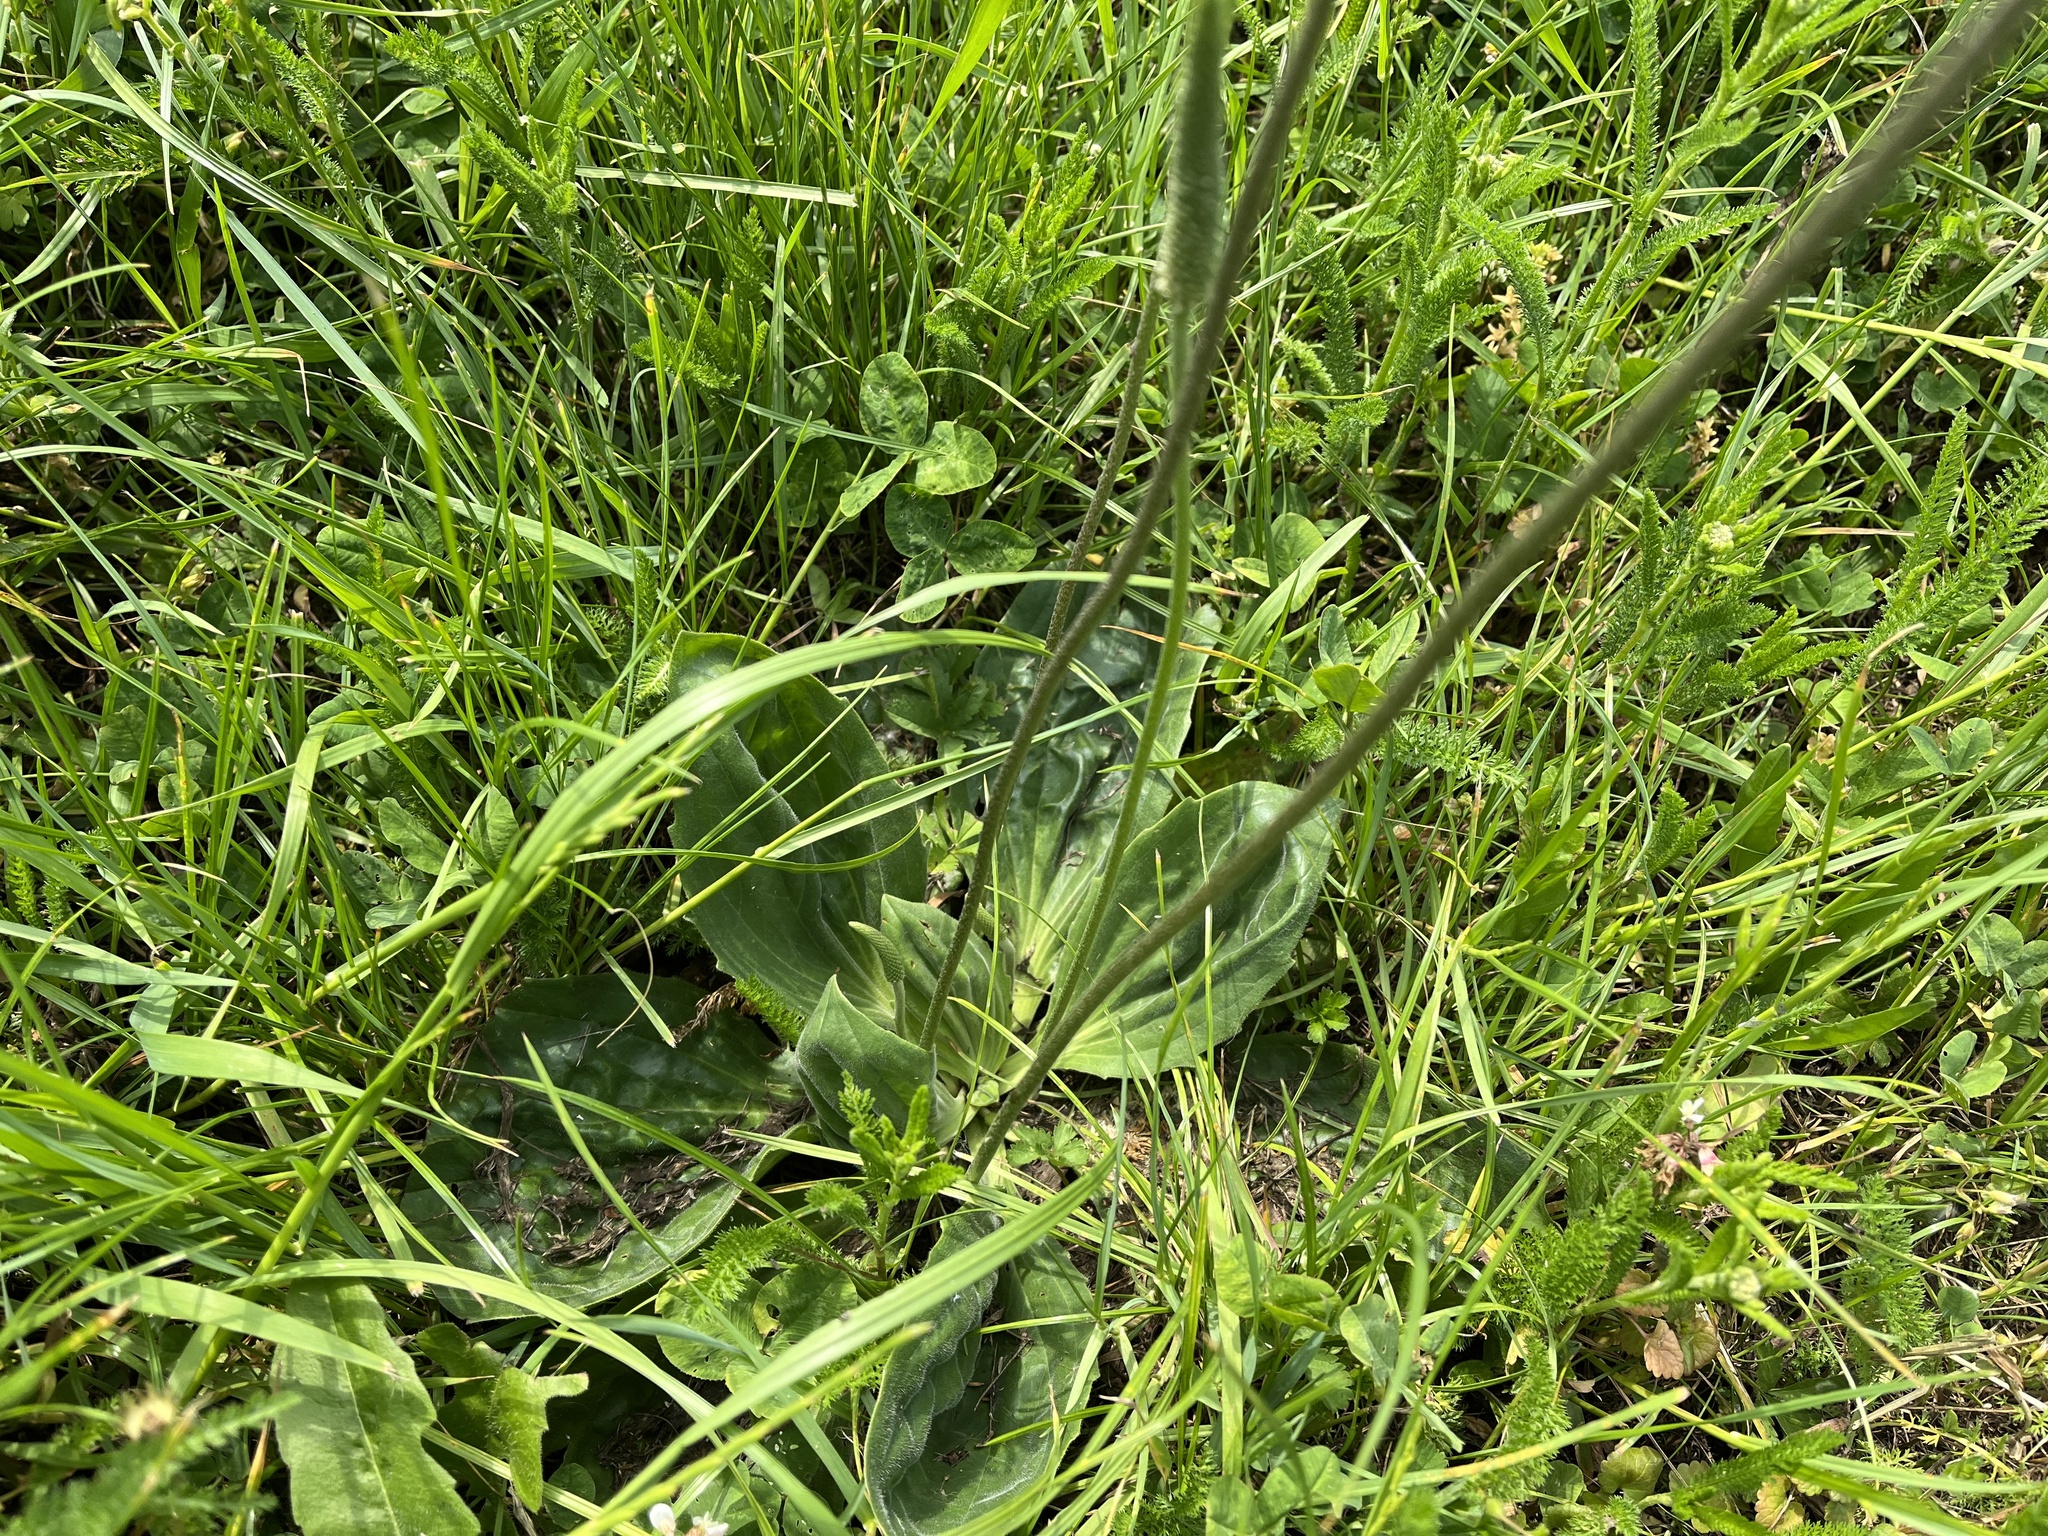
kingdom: Plantae
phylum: Tracheophyta
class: Magnoliopsida
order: Lamiales
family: Plantaginaceae
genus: Plantago
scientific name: Plantago media
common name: Hoary plantain
